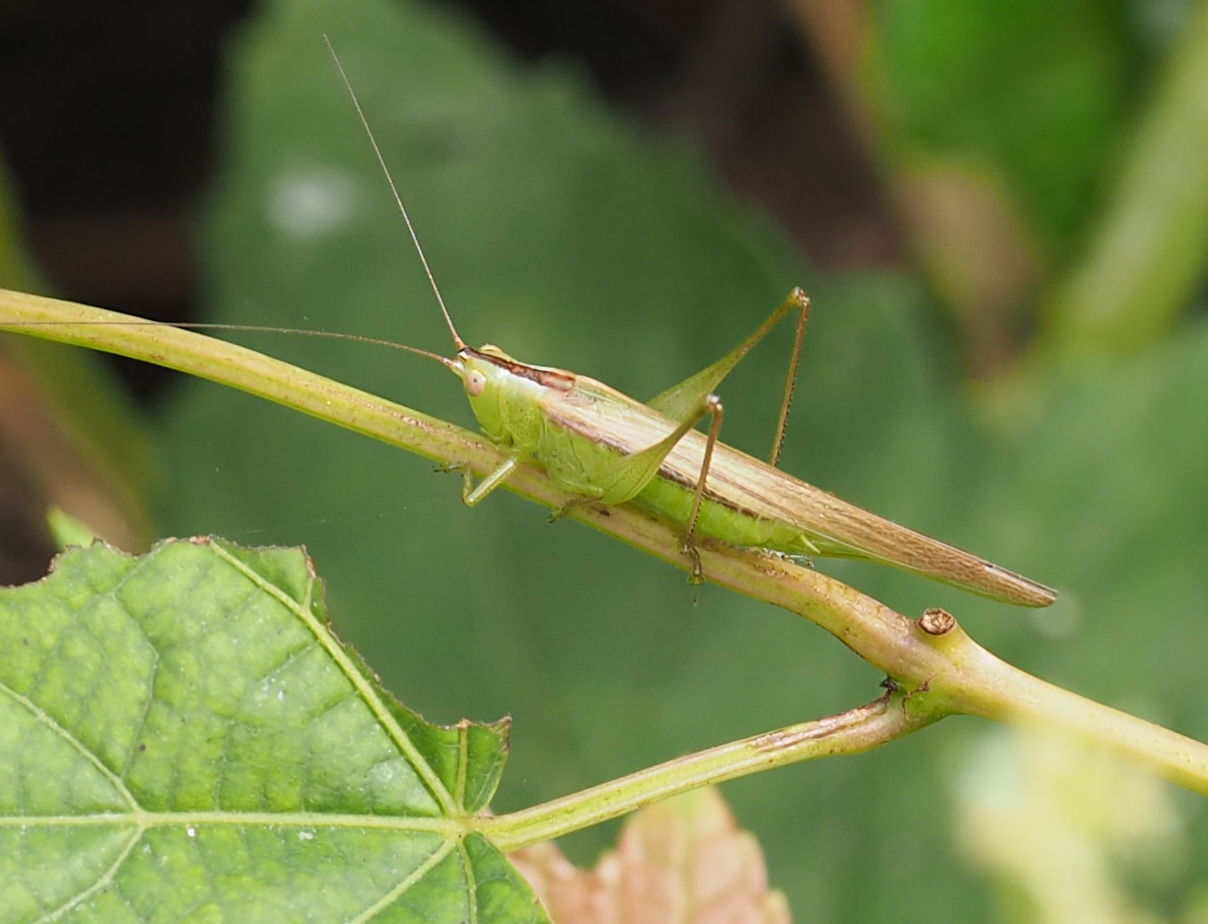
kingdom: Animalia
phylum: Arthropoda
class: Insecta
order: Orthoptera
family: Tettigoniidae
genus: Conocephalus
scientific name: Conocephalus fasciatus
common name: Slender meadow katydid
